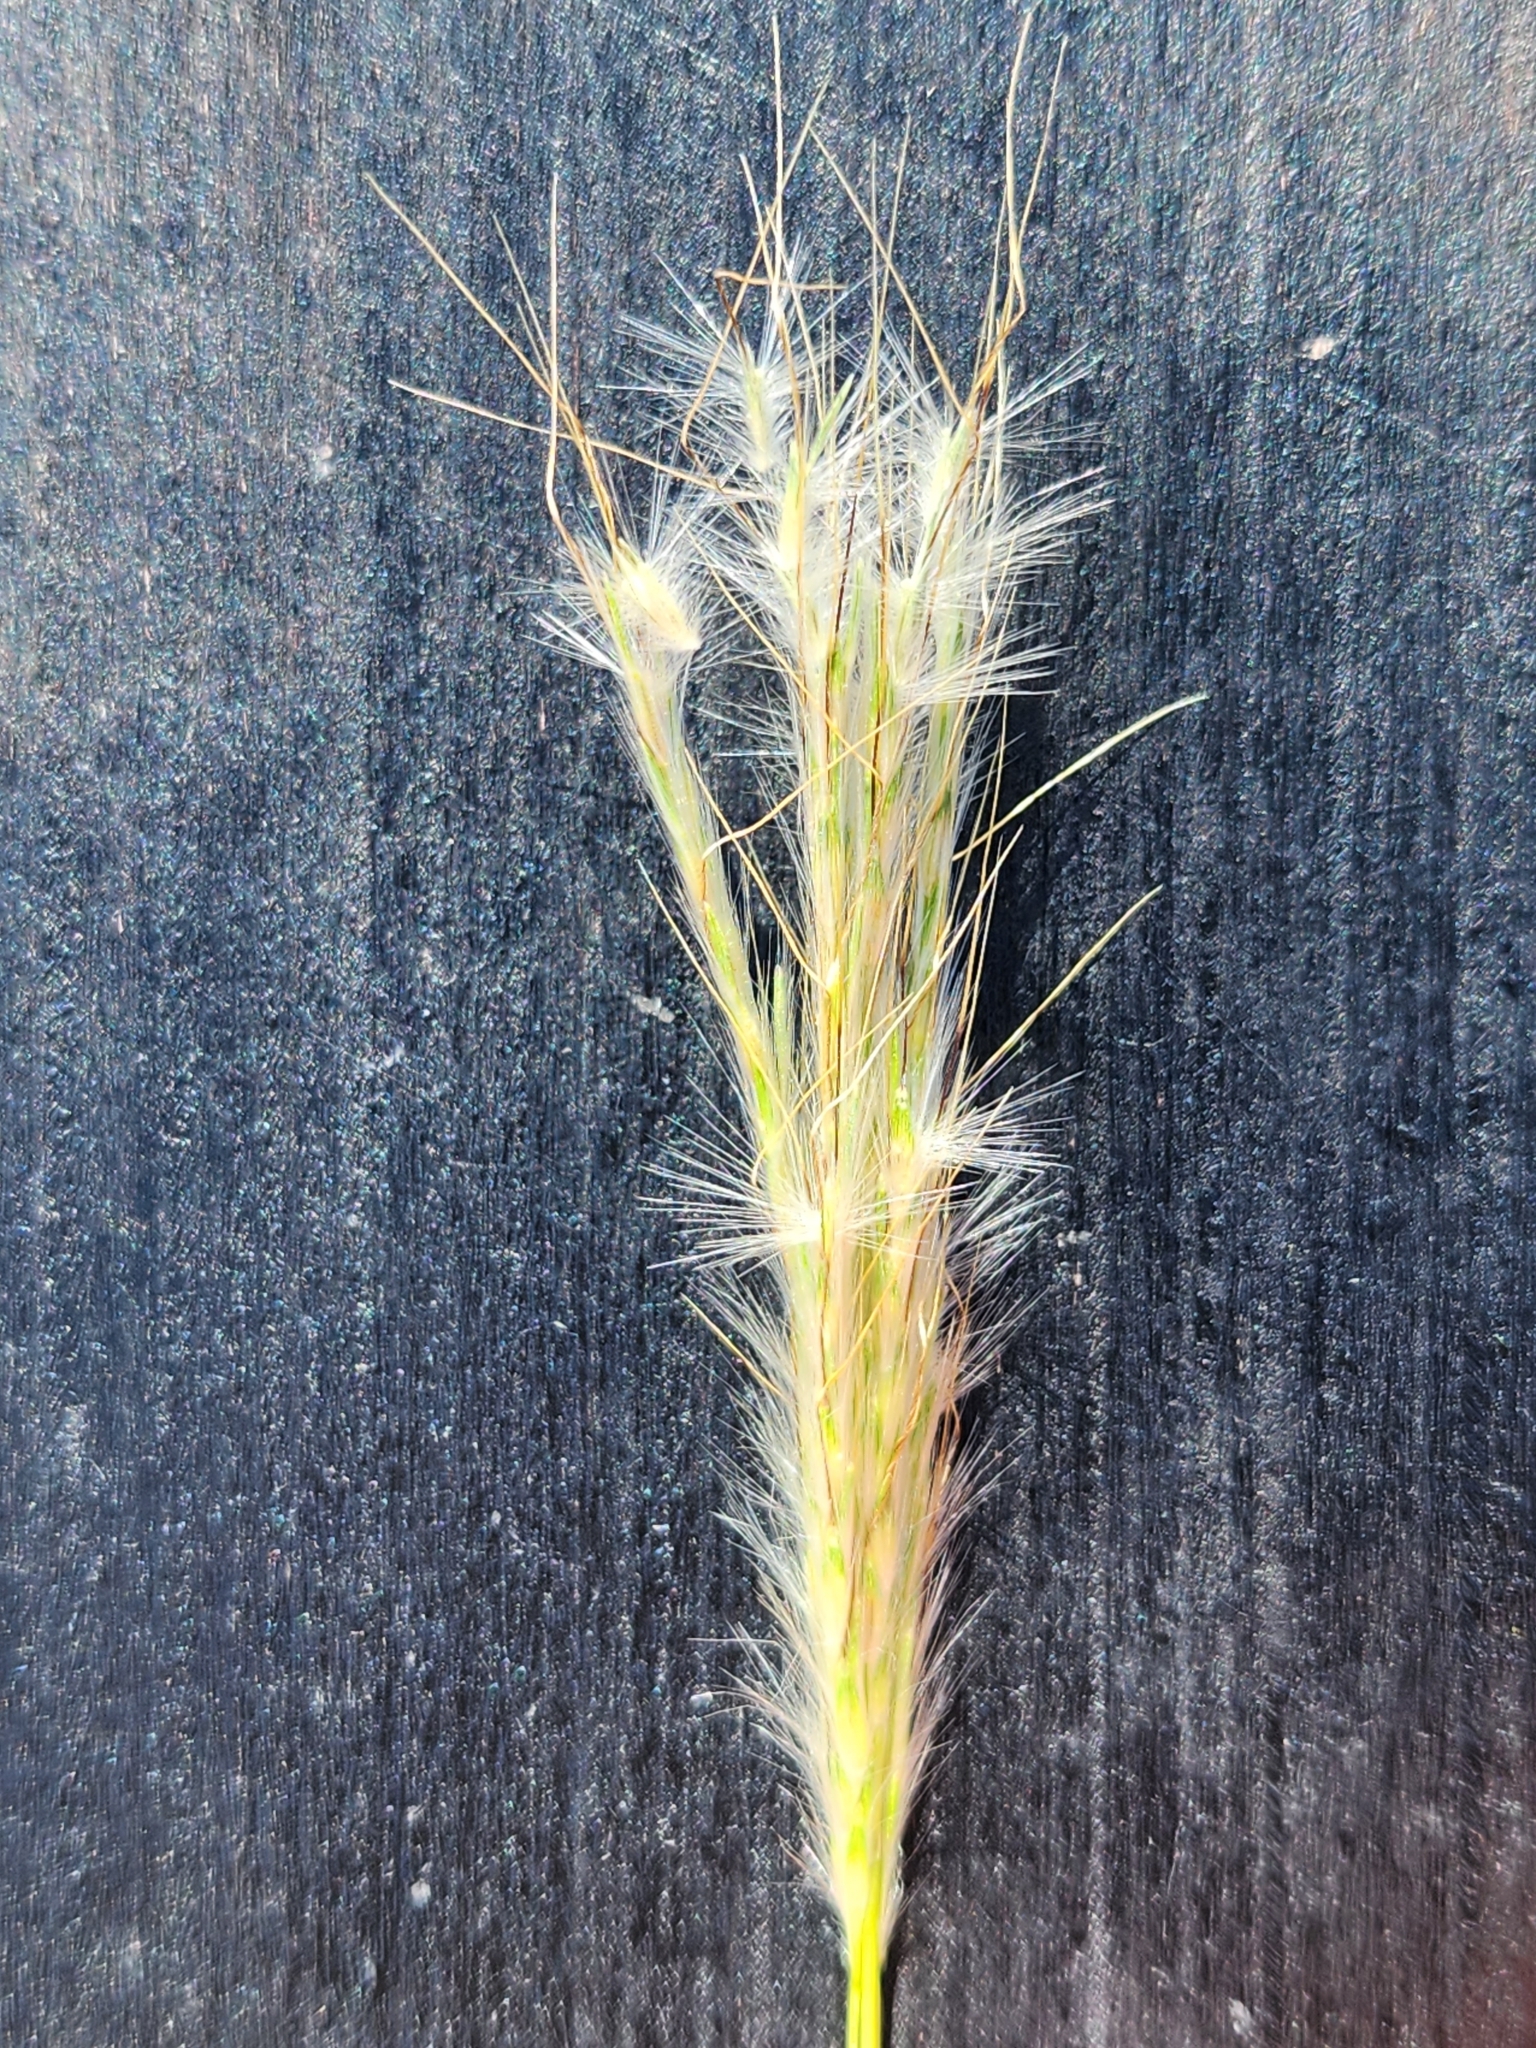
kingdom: Plantae
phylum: Tracheophyta
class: Liliopsida
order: Poales
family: Poaceae
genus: Bothriochloa
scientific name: Bothriochloa barbinodis
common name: Cane bluestem
